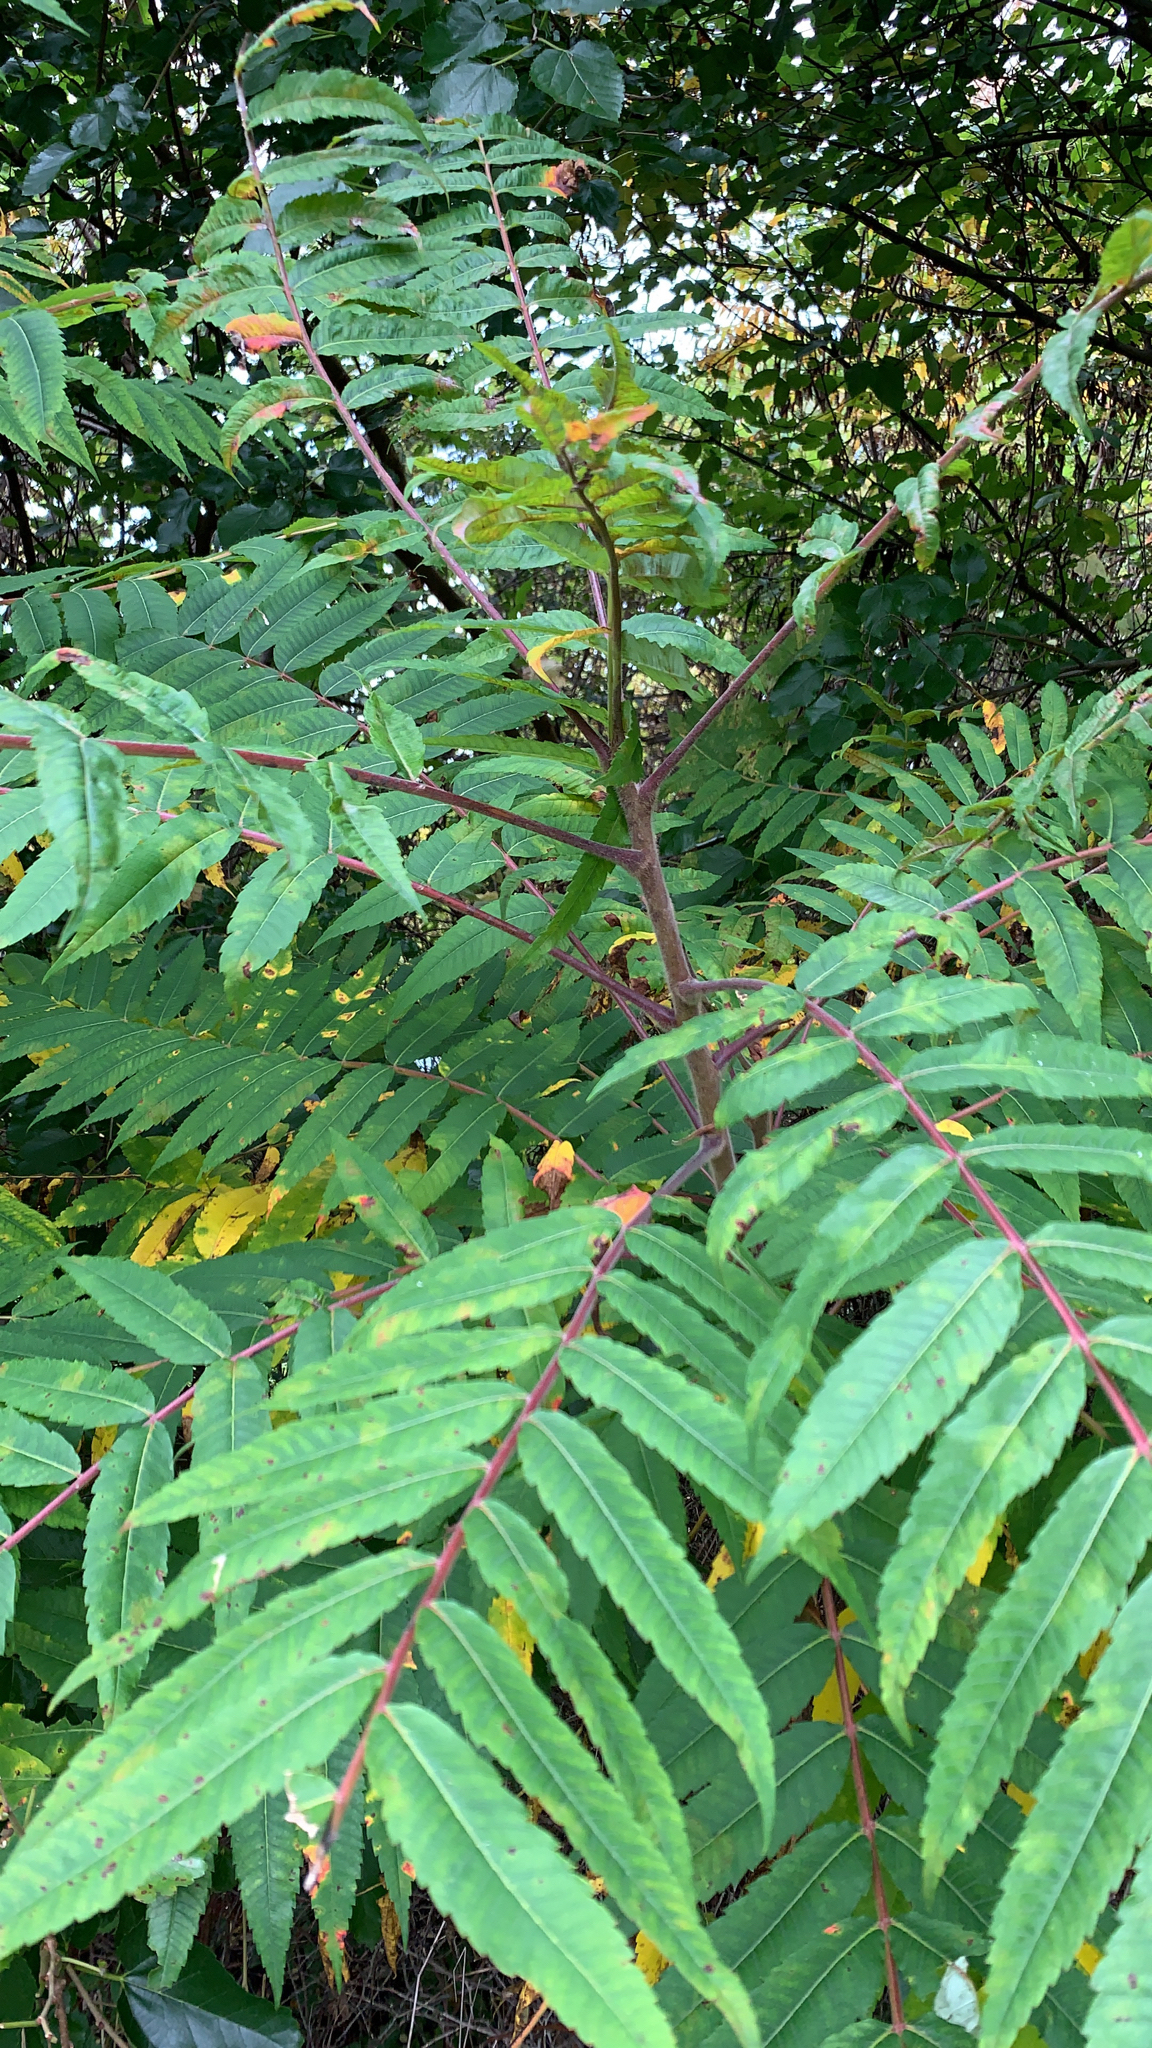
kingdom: Plantae
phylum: Tracheophyta
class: Magnoliopsida
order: Sapindales
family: Anacardiaceae
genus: Rhus
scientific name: Rhus typhina
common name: Staghorn sumac
